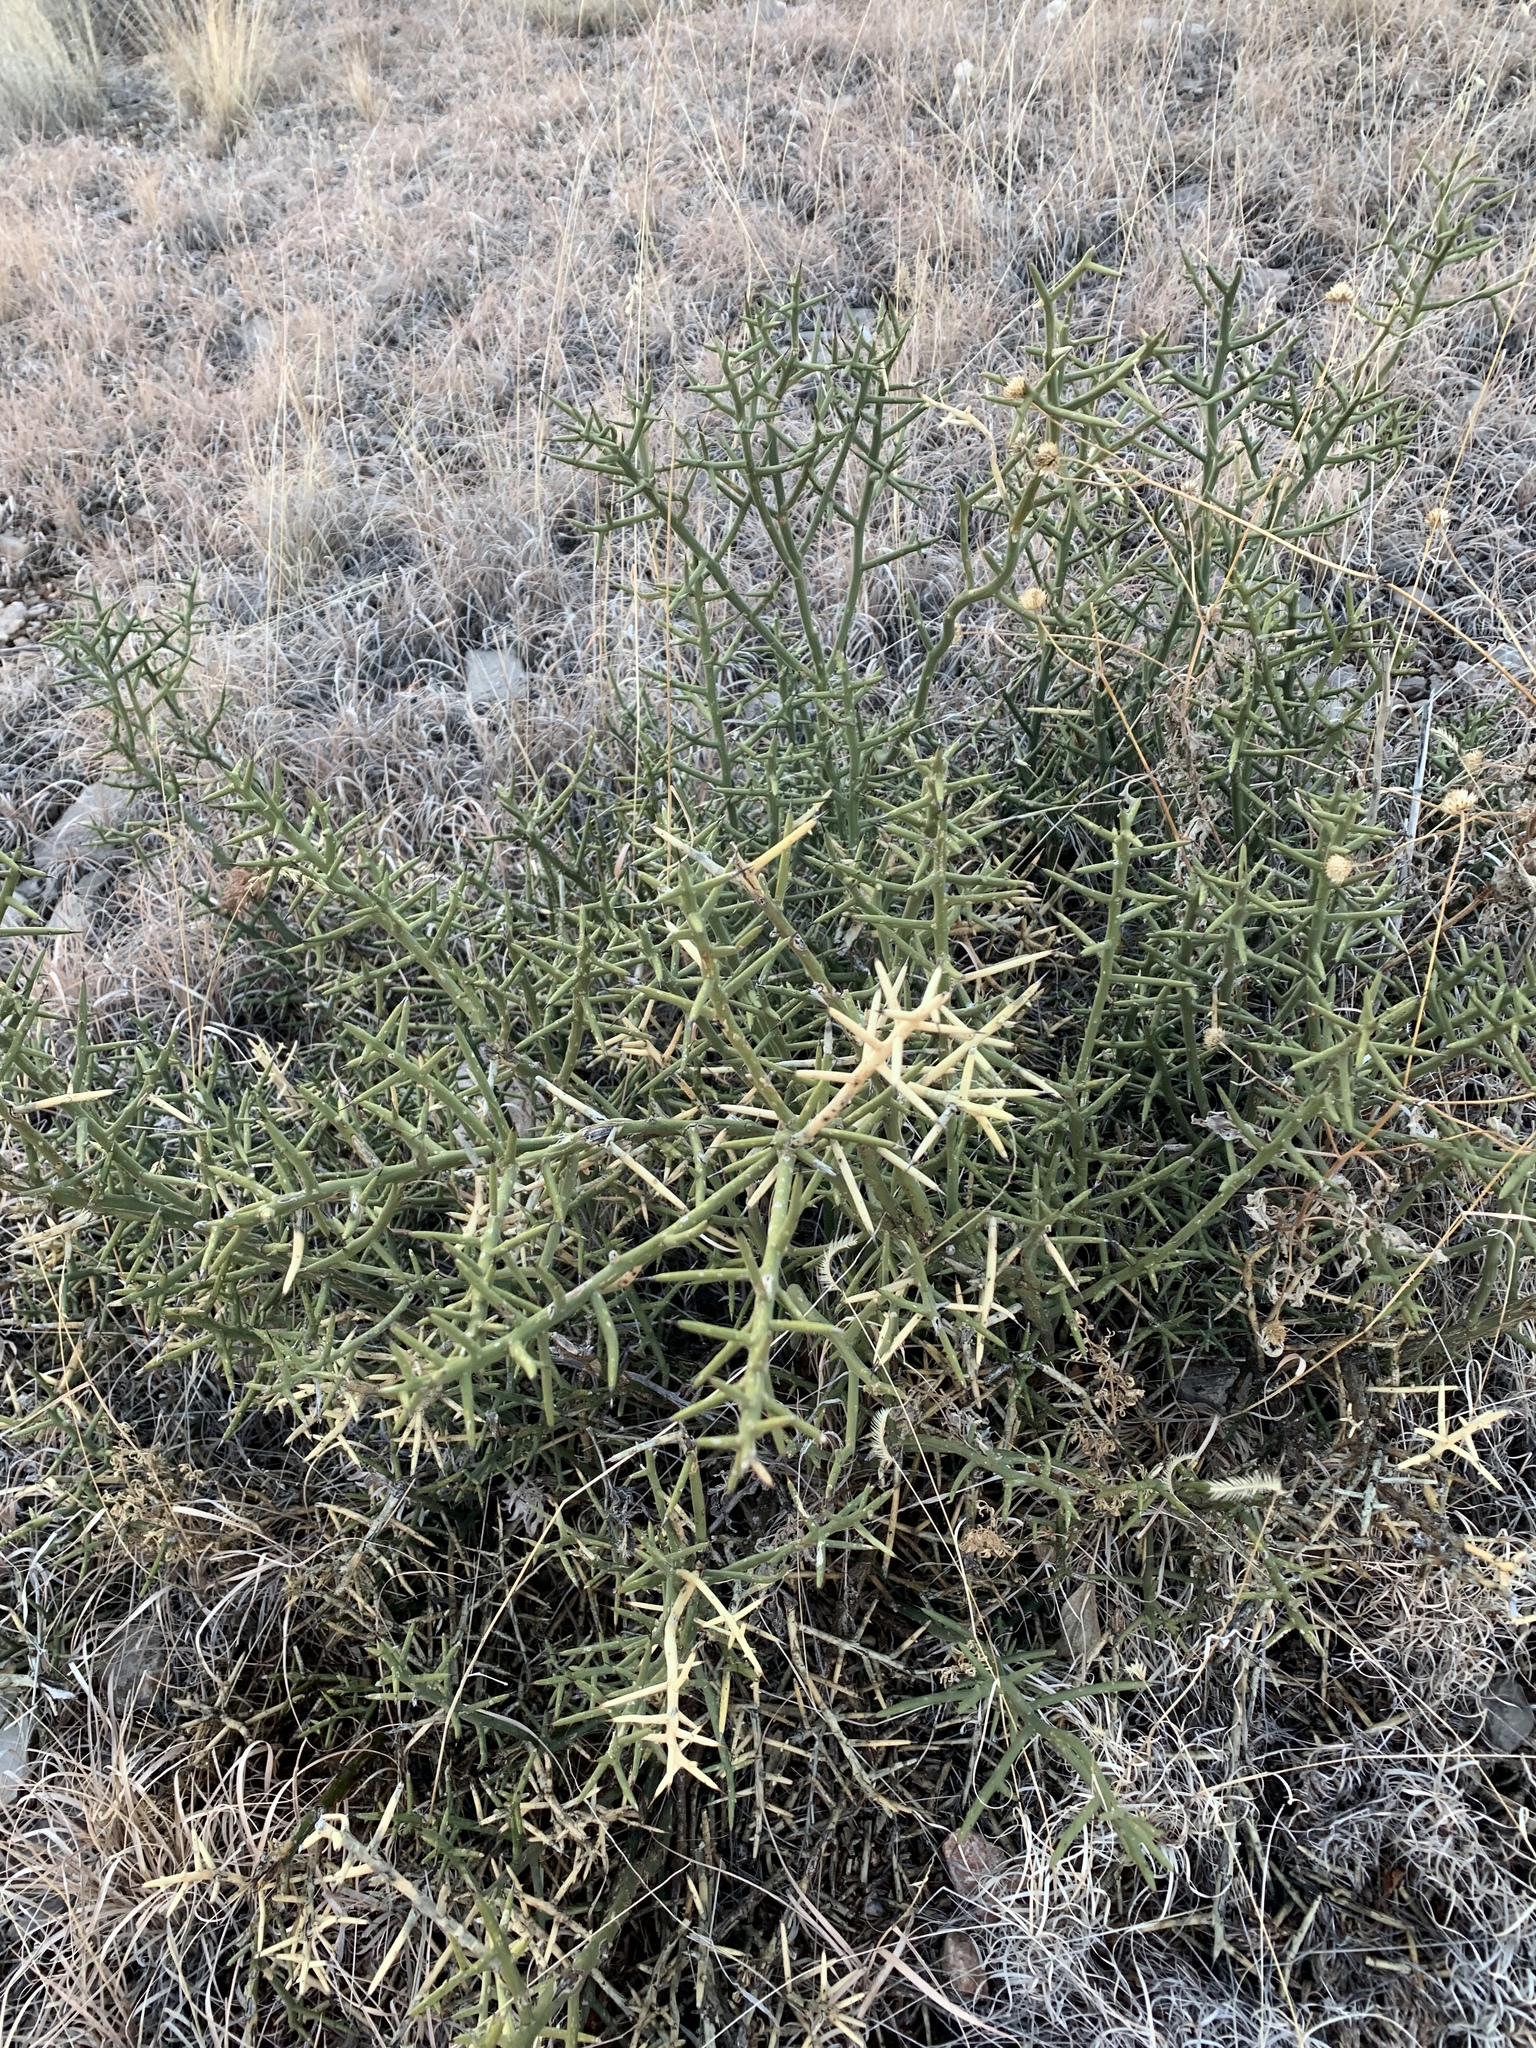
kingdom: Plantae
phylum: Tracheophyta
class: Magnoliopsida
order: Brassicales
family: Koeberliniaceae
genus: Koeberlinia
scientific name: Koeberlinia spinosa
